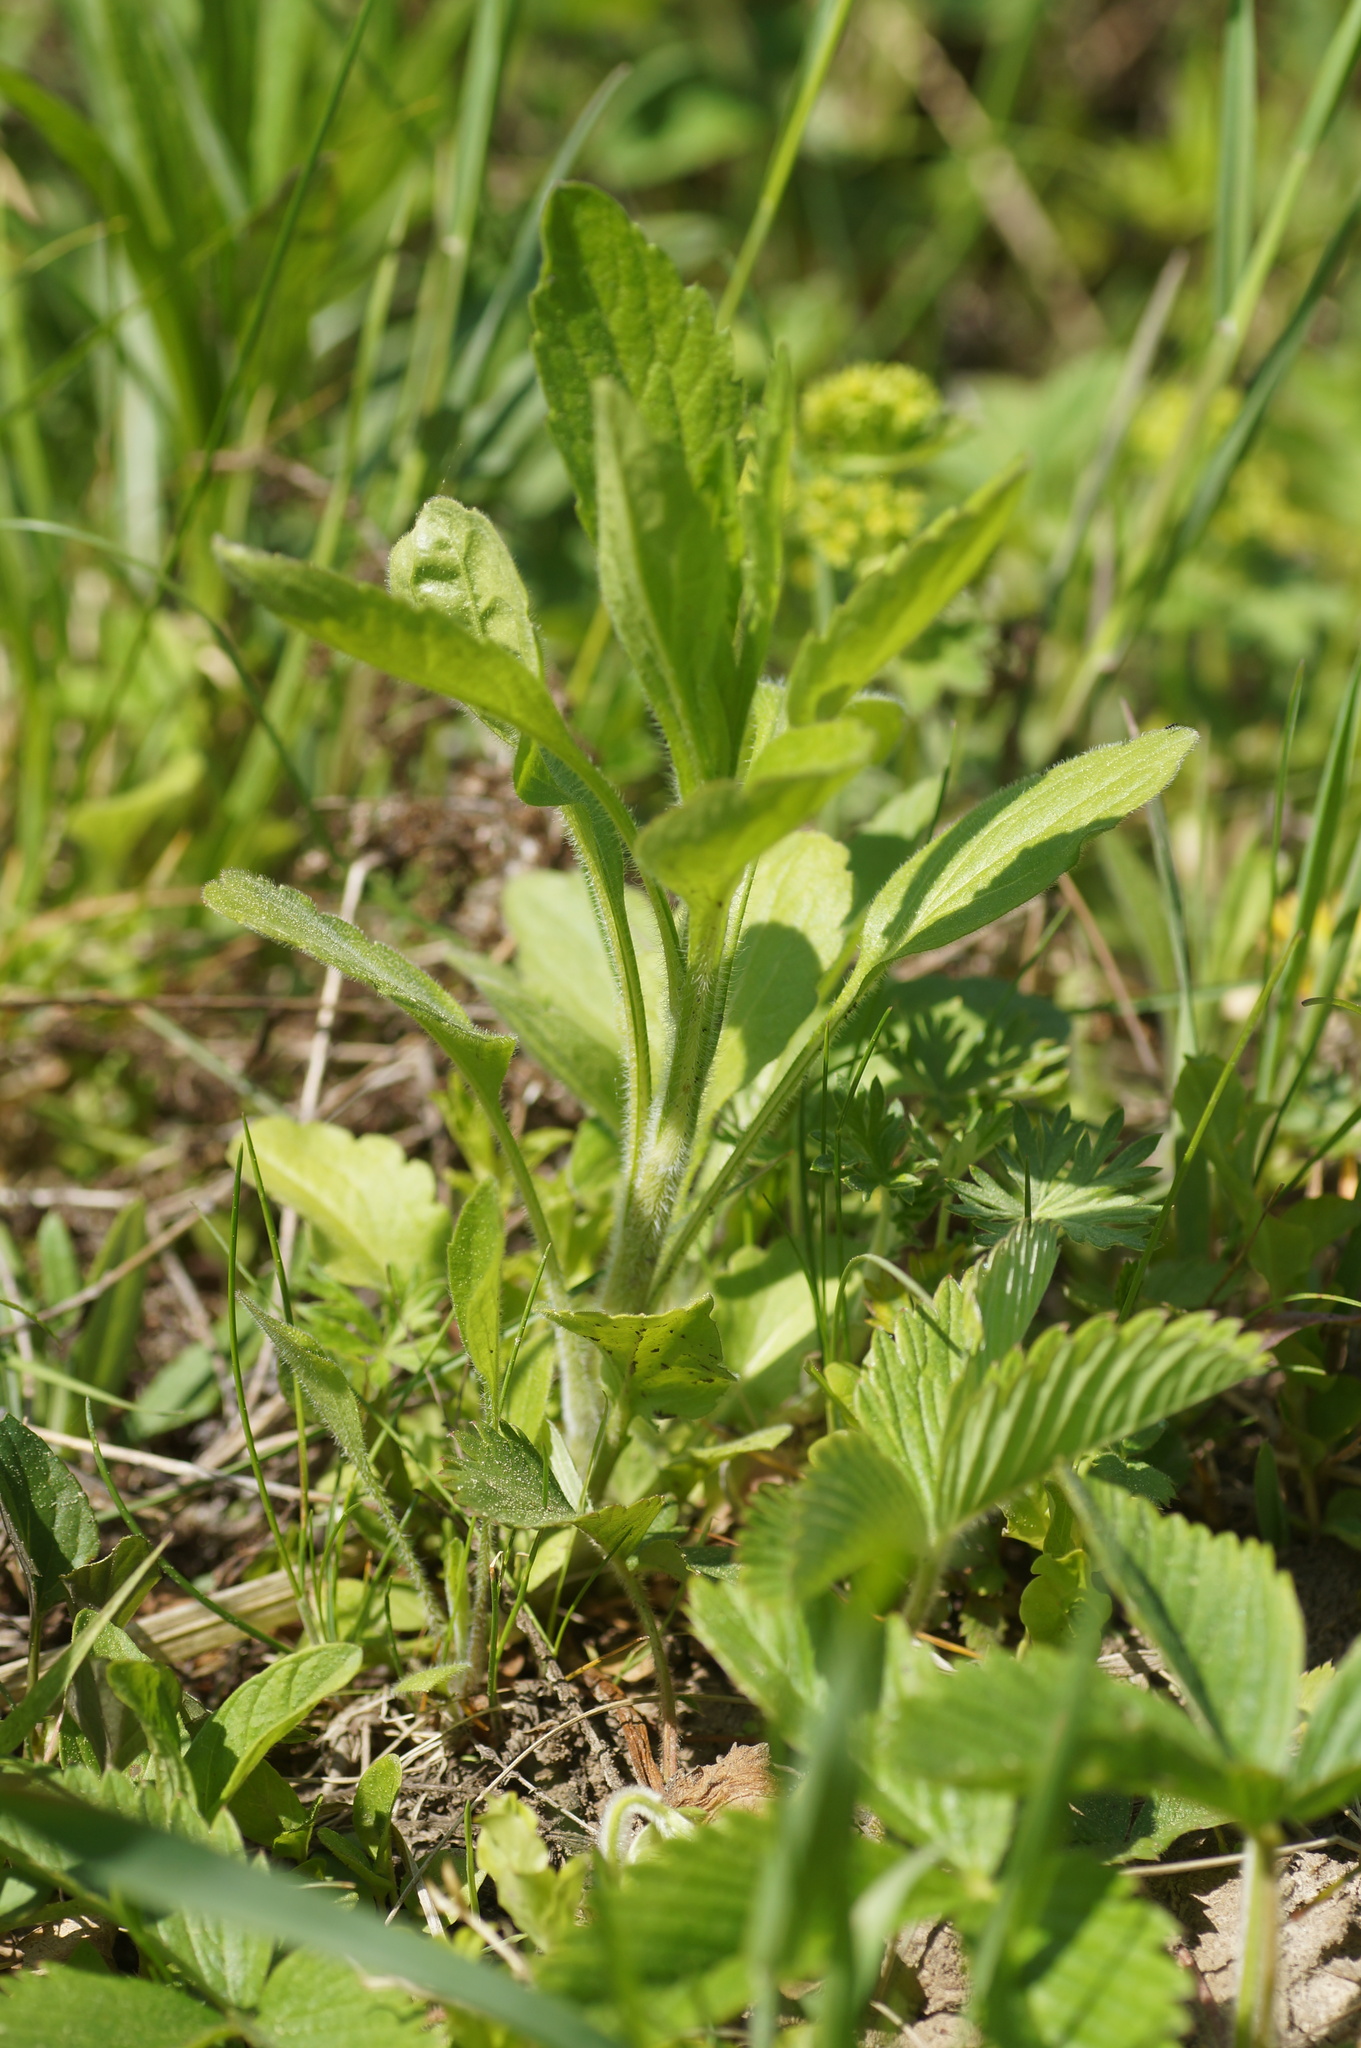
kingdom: Plantae
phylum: Tracheophyta
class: Magnoliopsida
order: Asterales
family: Asteraceae
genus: Erigeron
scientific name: Erigeron annuus
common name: Tall fleabane
